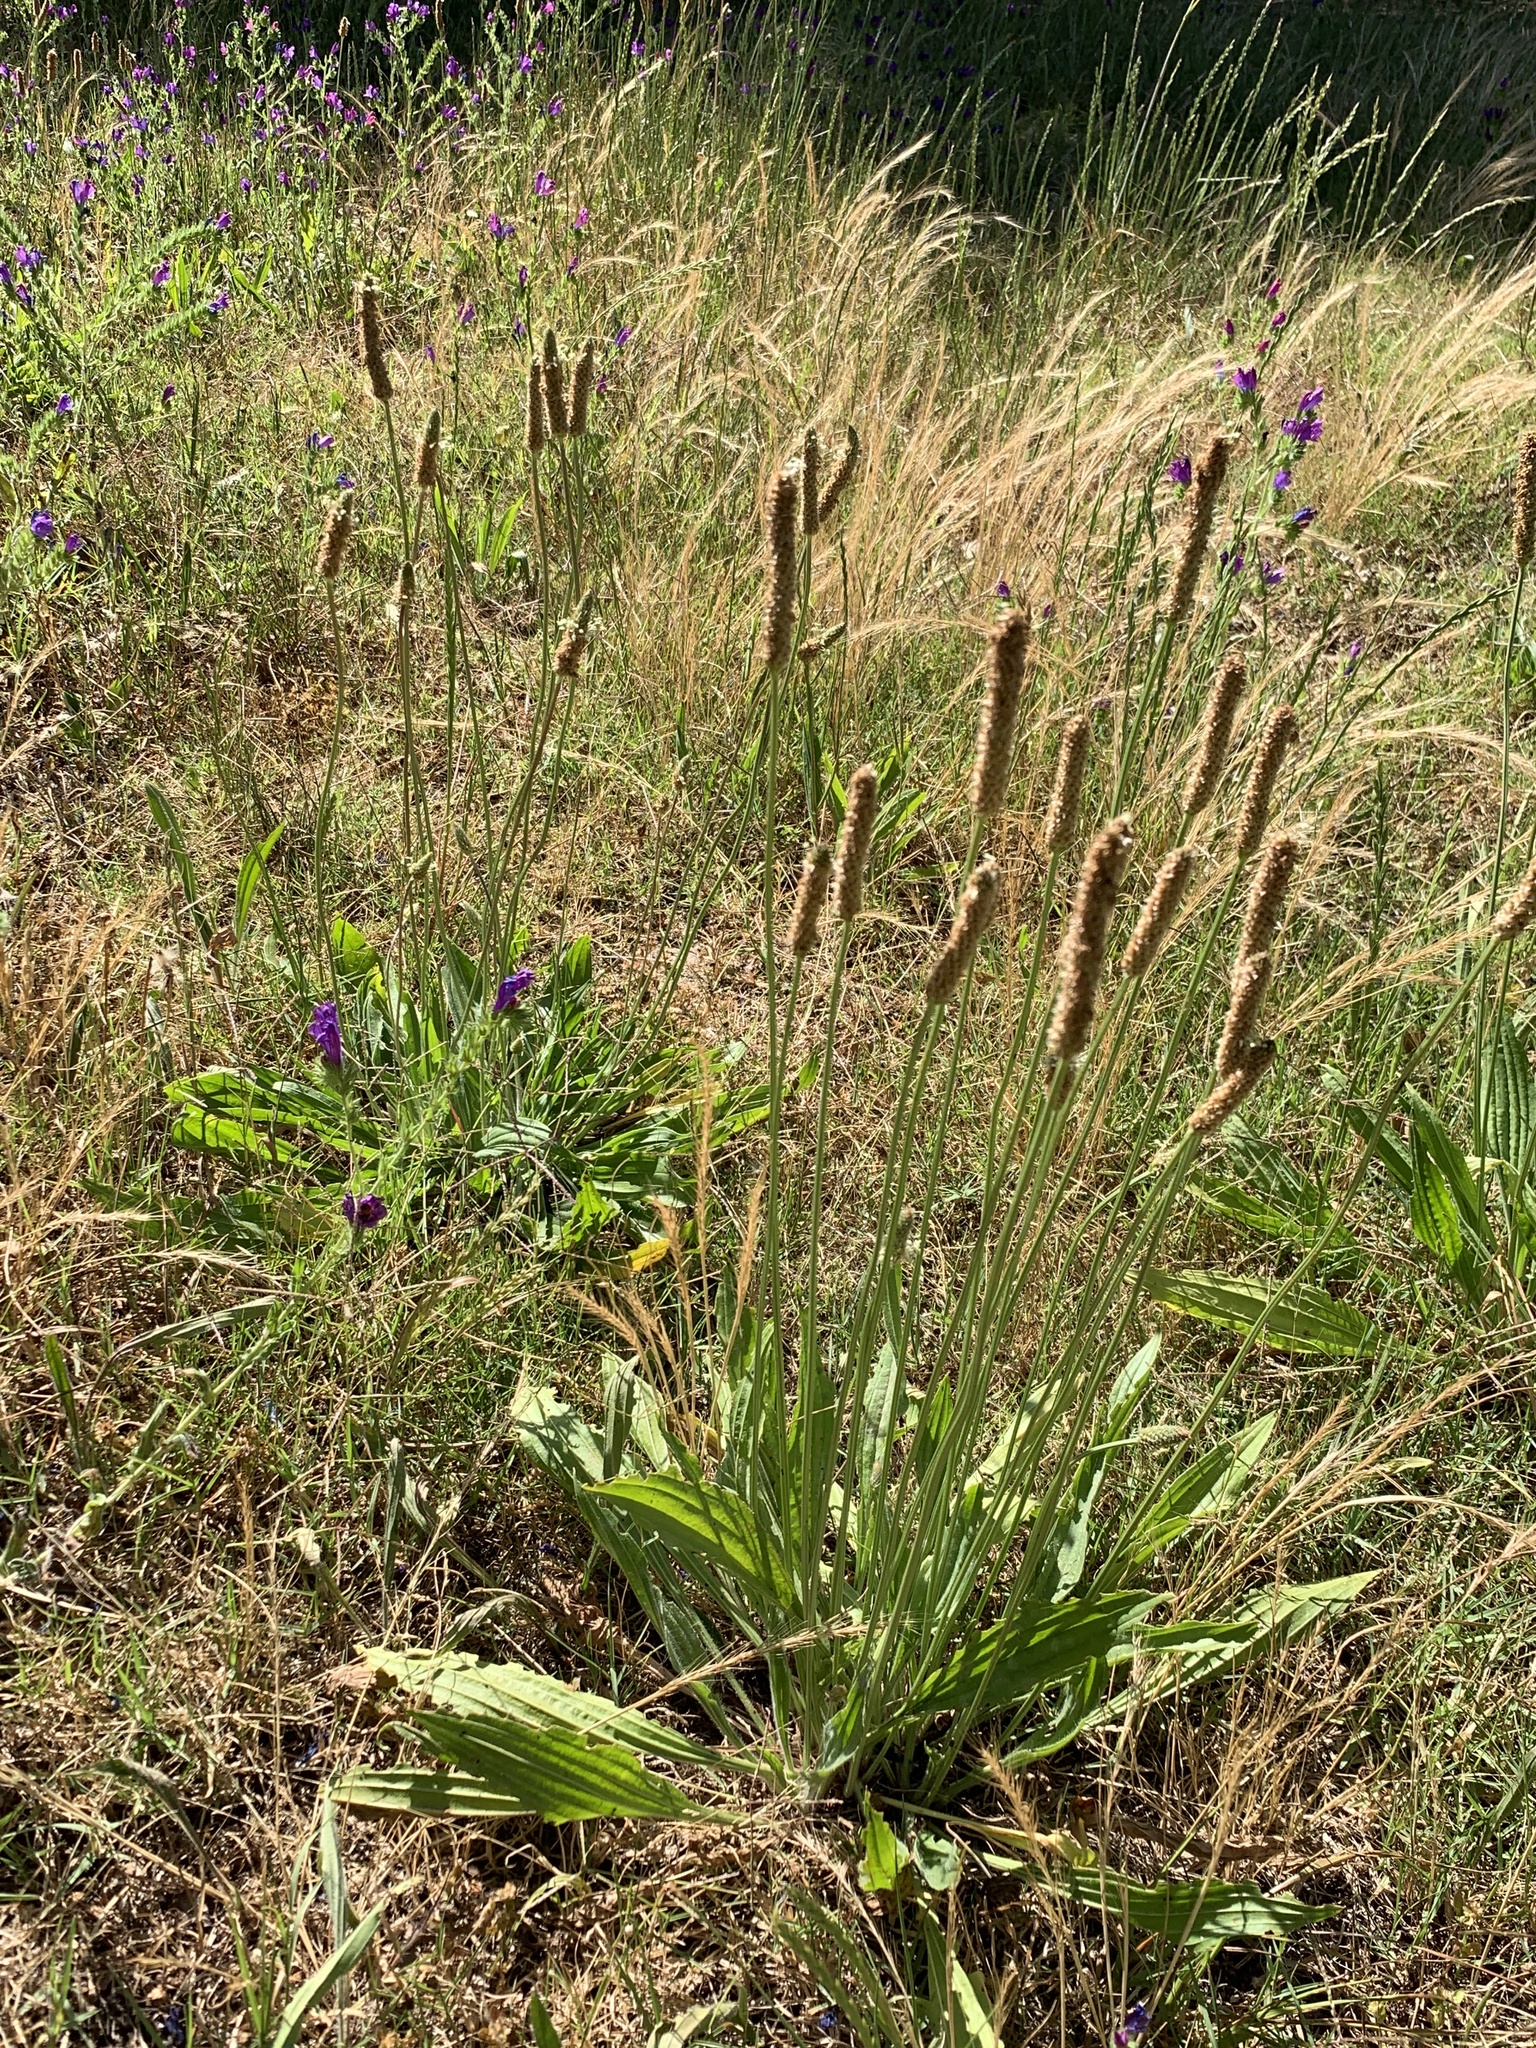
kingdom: Plantae
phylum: Tracheophyta
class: Magnoliopsida
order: Lamiales
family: Plantaginaceae
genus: Plantago
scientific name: Plantago lanceolata
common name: Ribwort plantain
